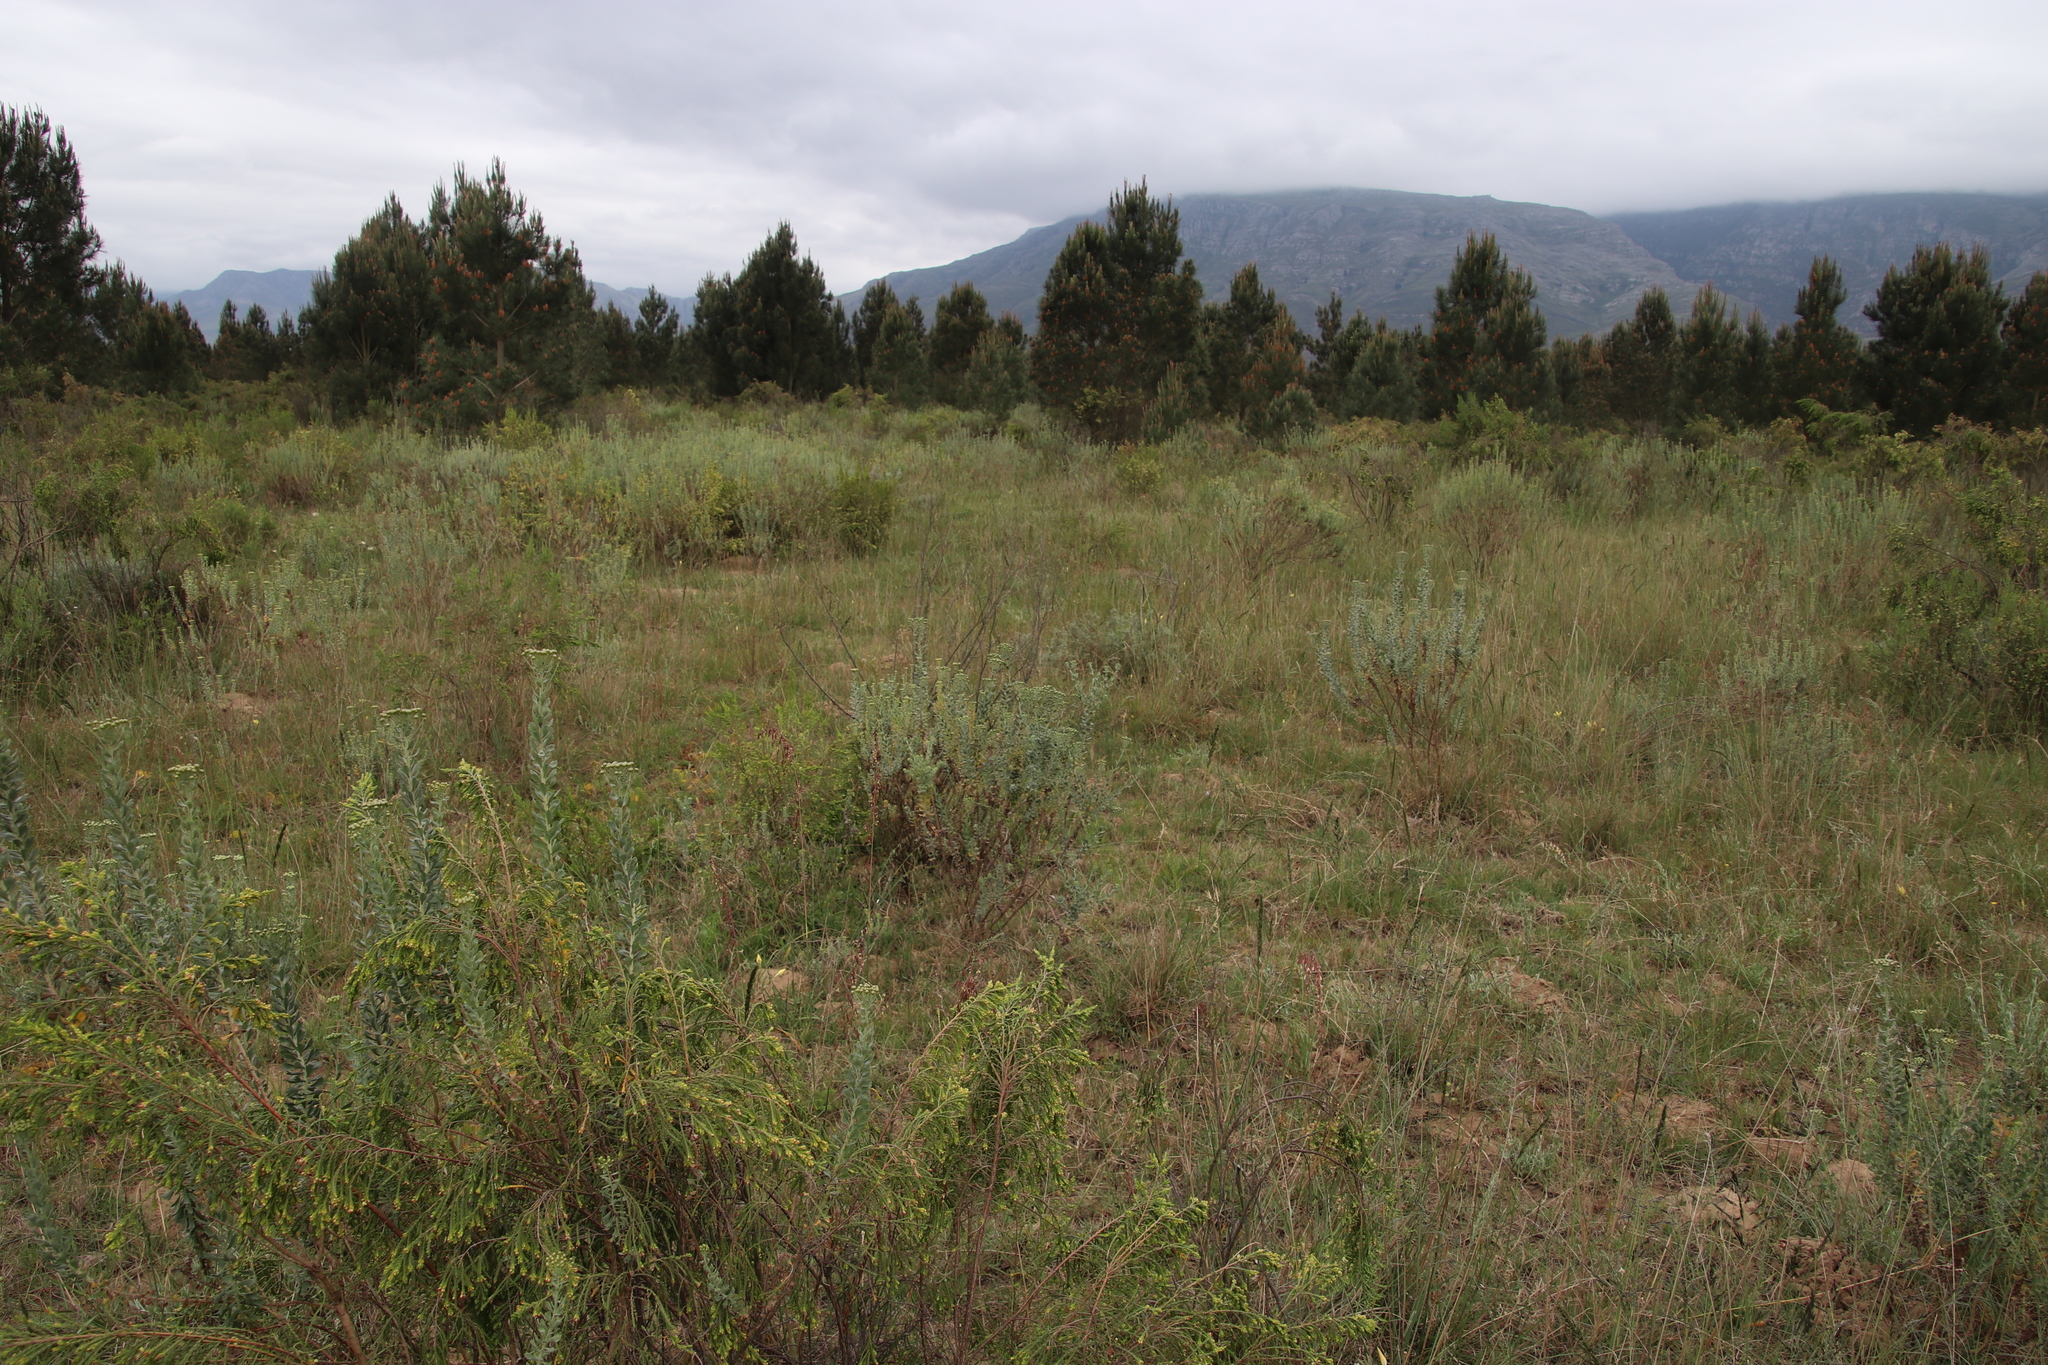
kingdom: Plantae
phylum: Tracheophyta
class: Magnoliopsida
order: Asterales
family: Asteraceae
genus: Athanasia
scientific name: Athanasia trifurcata
